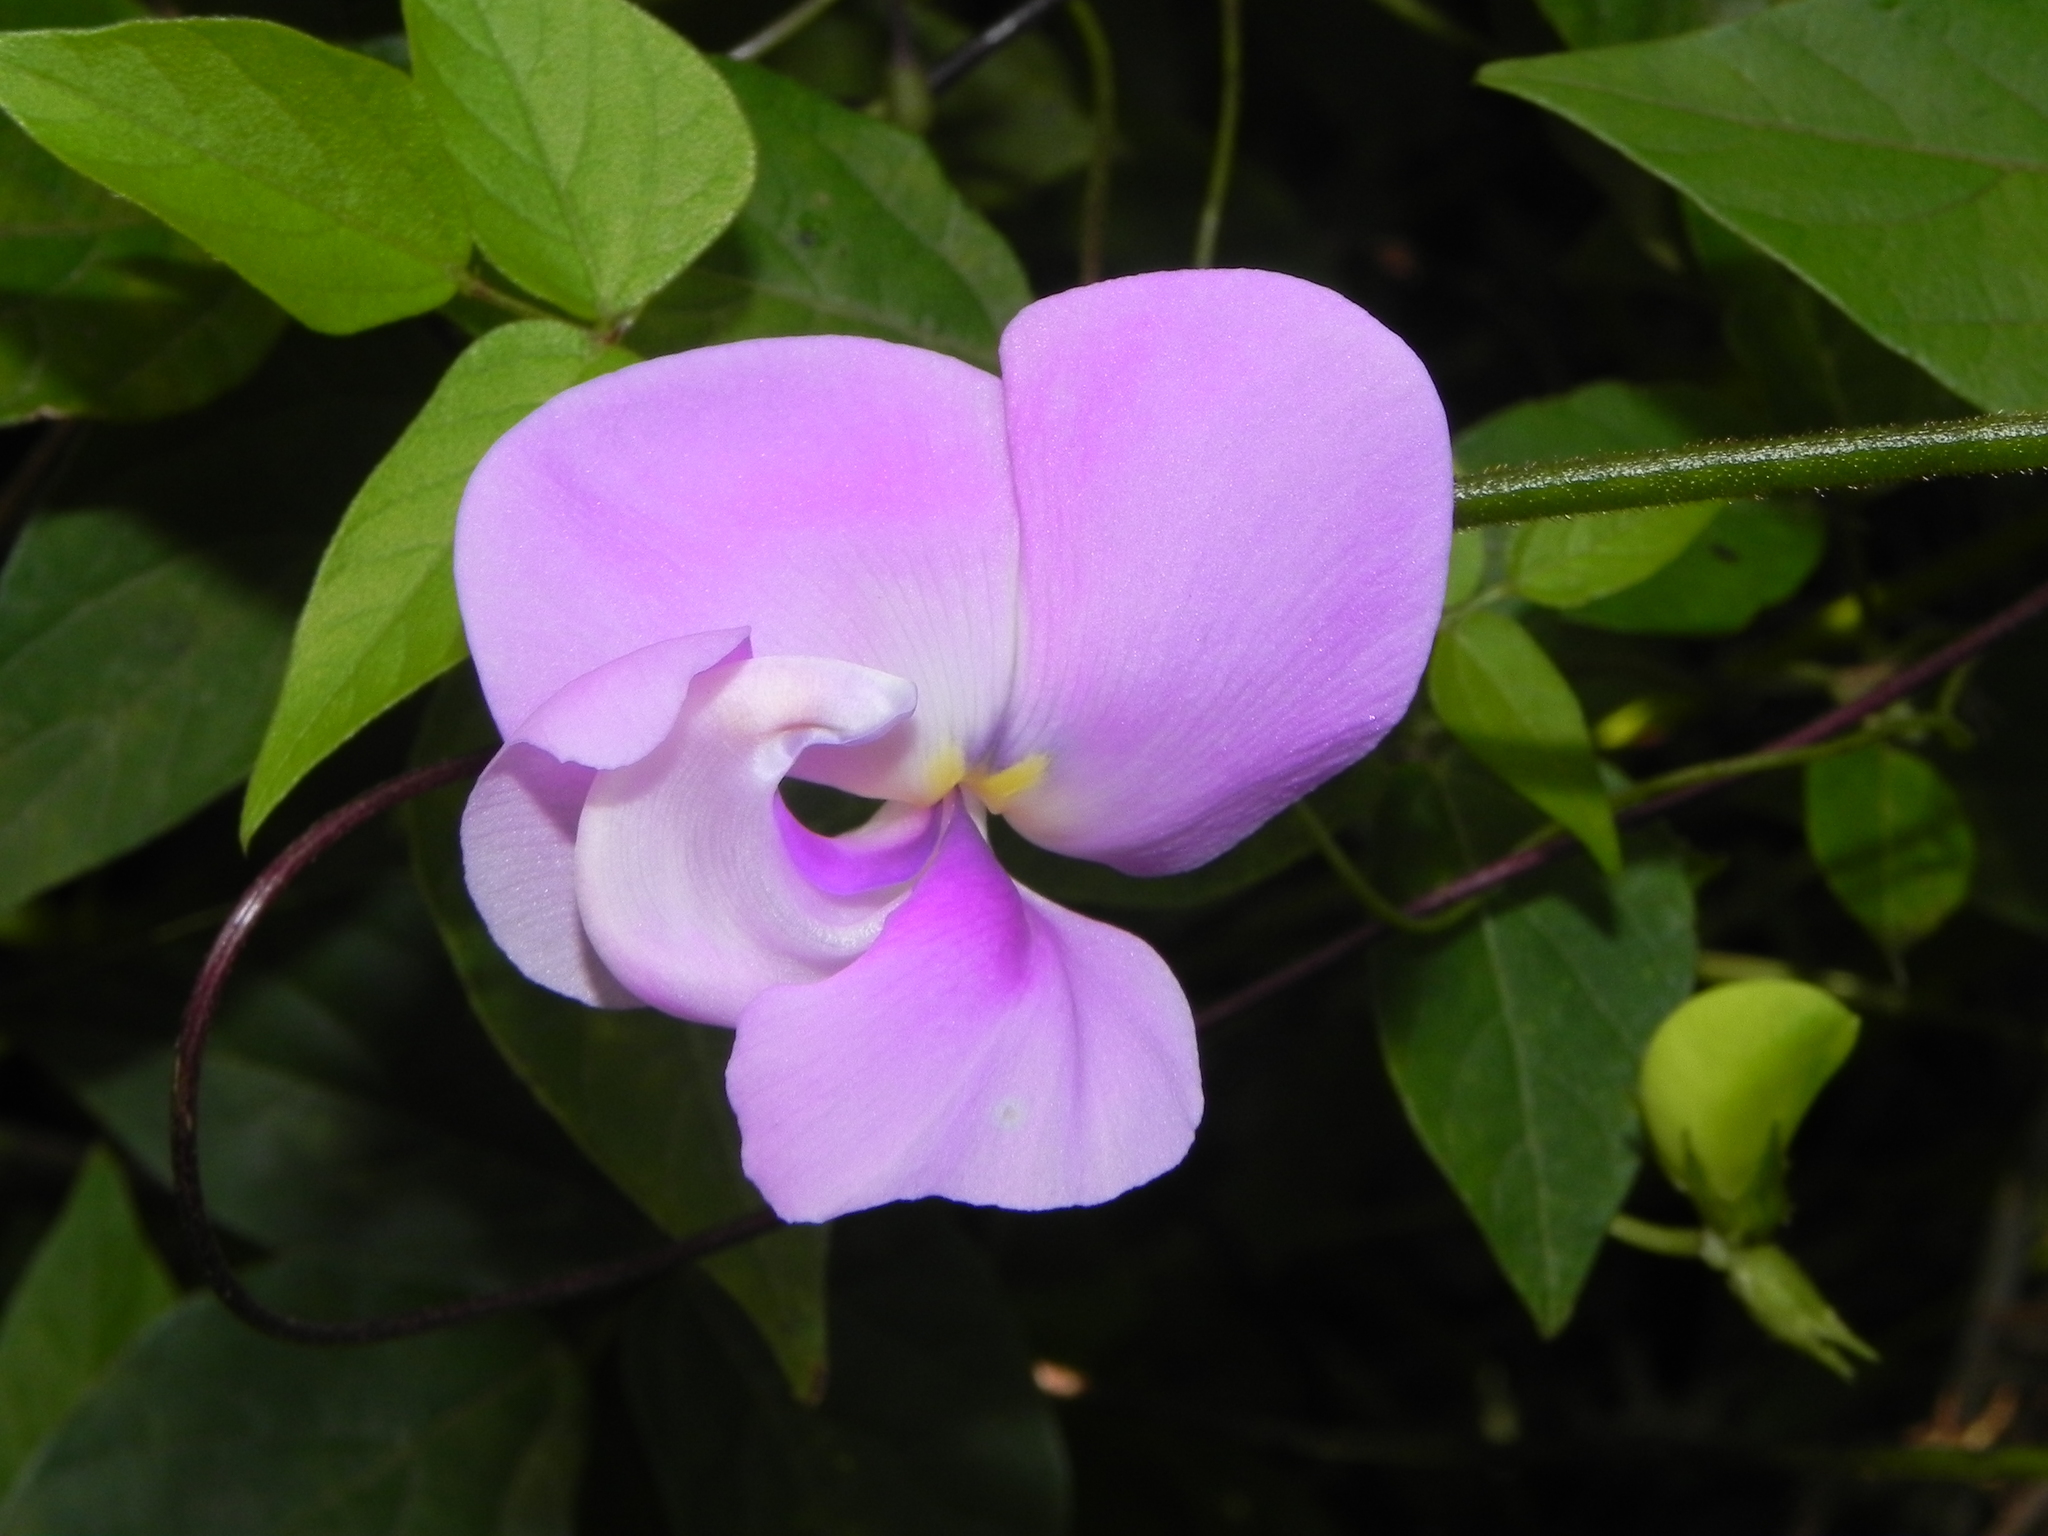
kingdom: Plantae
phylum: Tracheophyta
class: Magnoliopsida
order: Fabales
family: Fabaceae
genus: Vigna
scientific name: Vigna vexillata
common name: Zombi pea
